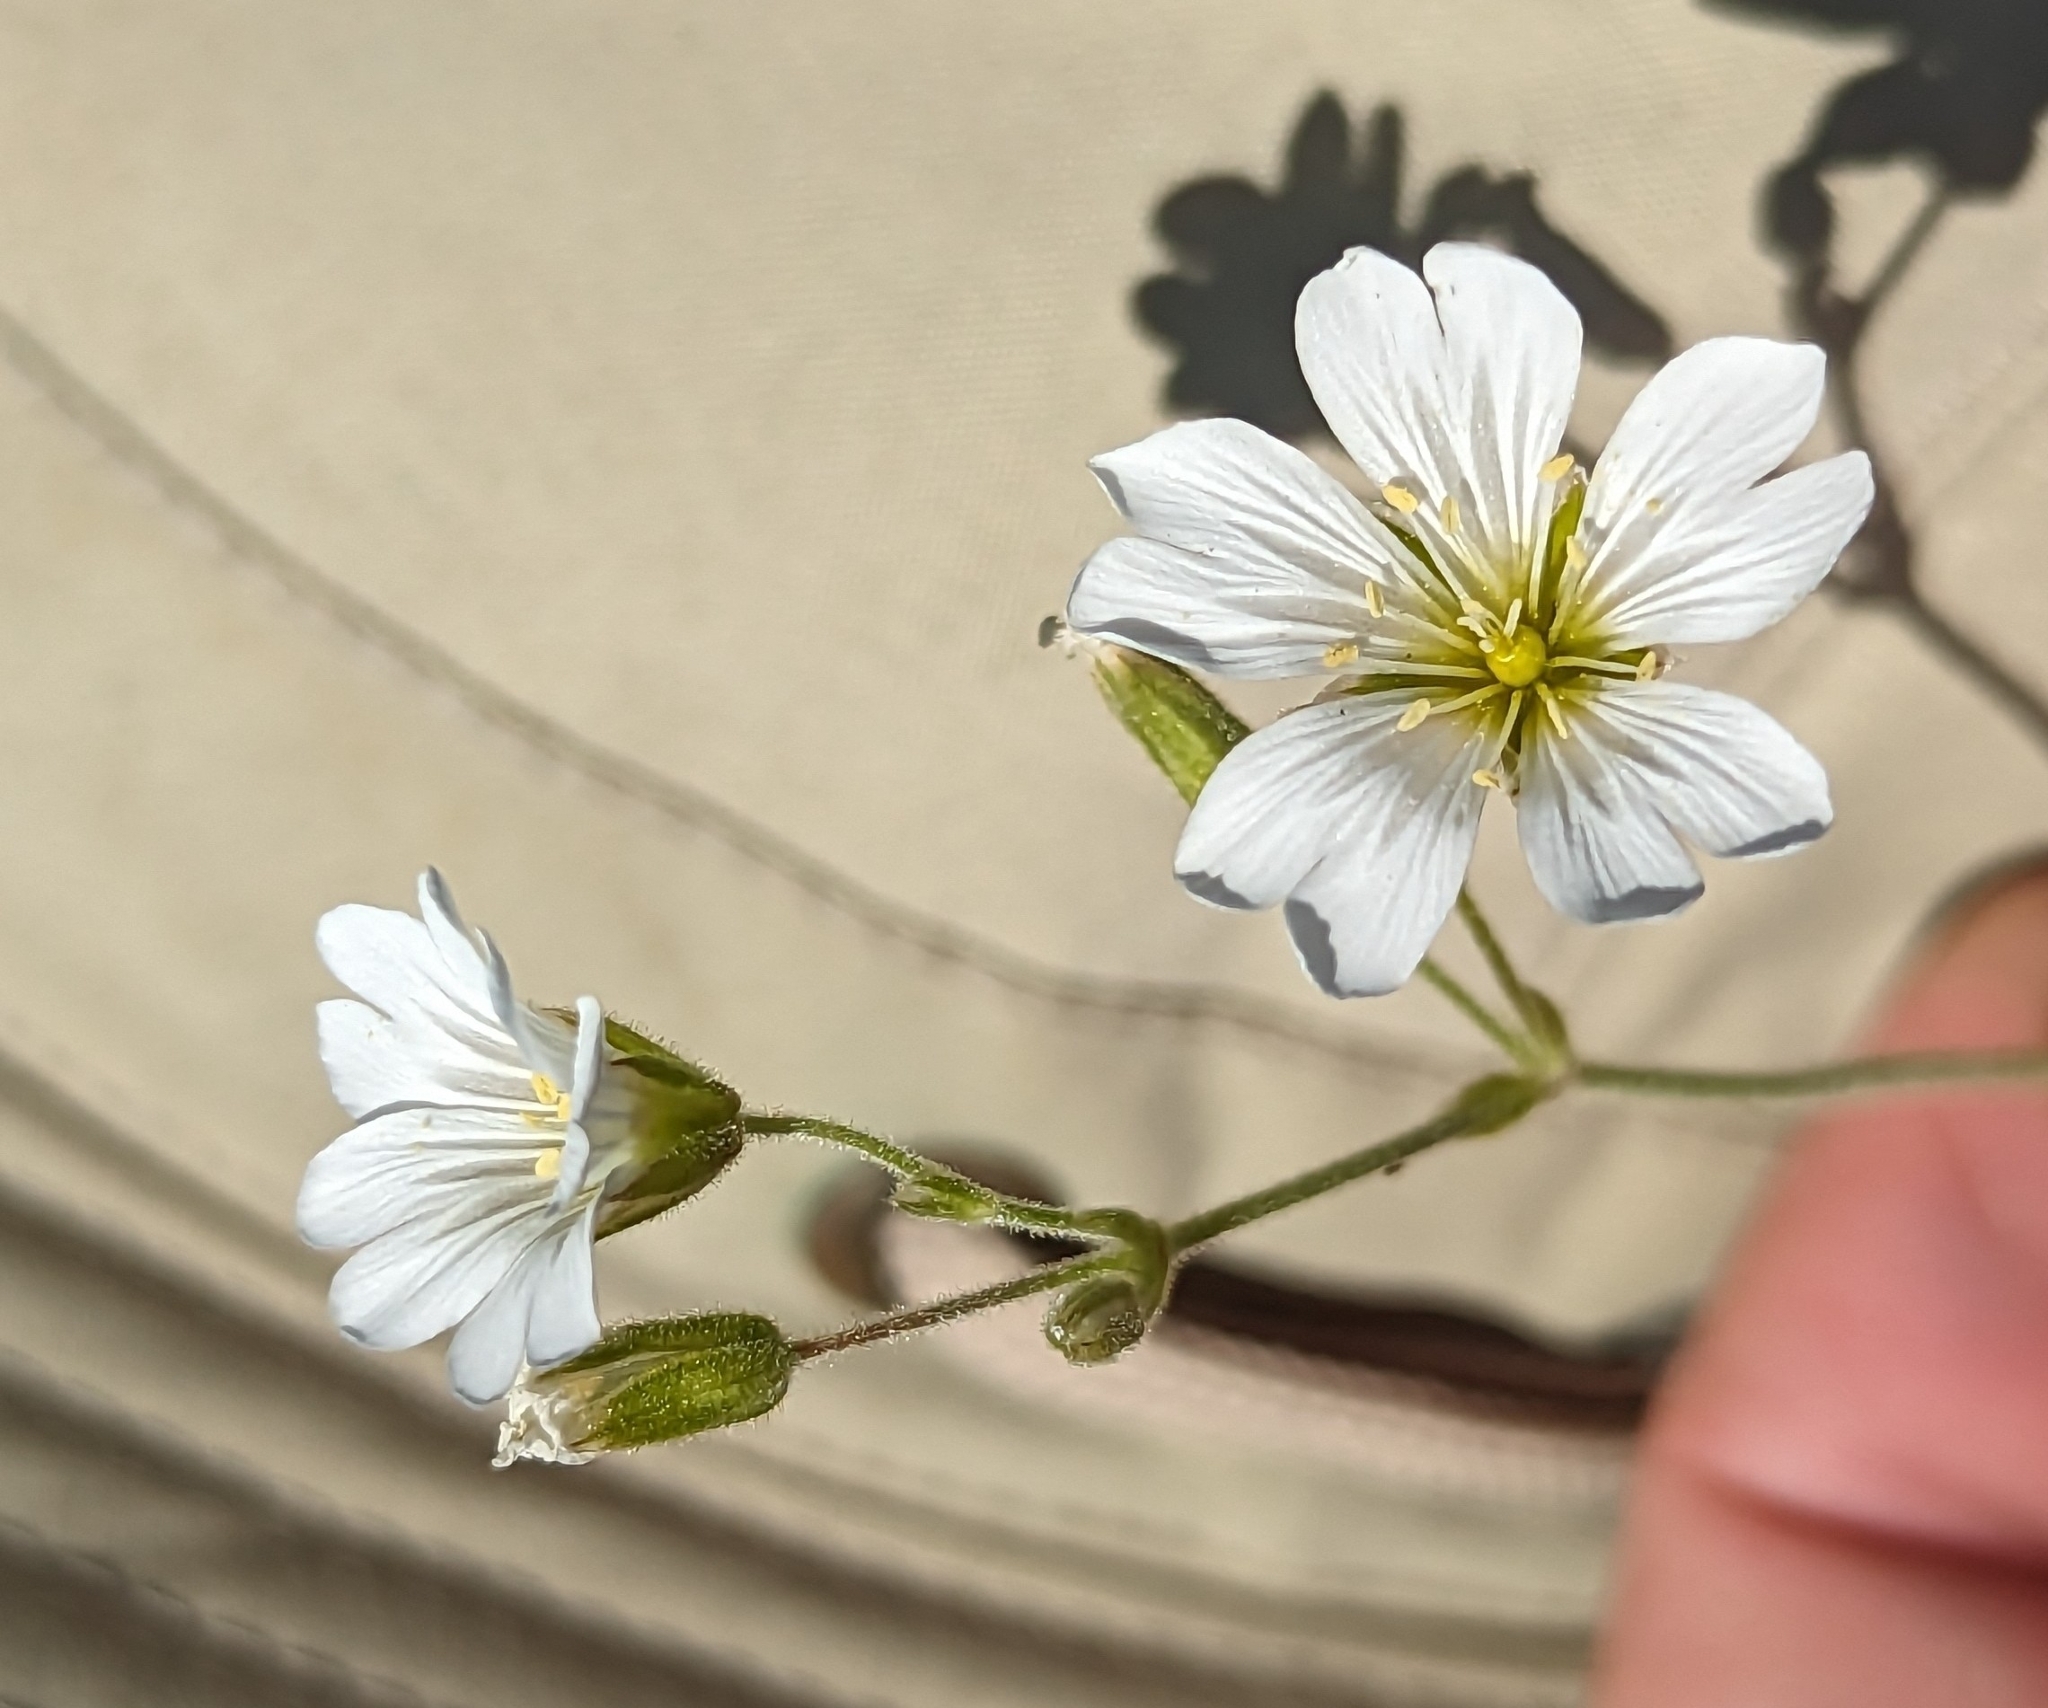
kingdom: Plantae
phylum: Tracheophyta
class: Magnoliopsida
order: Caryophyllales
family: Caryophyllaceae
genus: Cerastium
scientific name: Cerastium arvense
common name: Field mouse-ear
